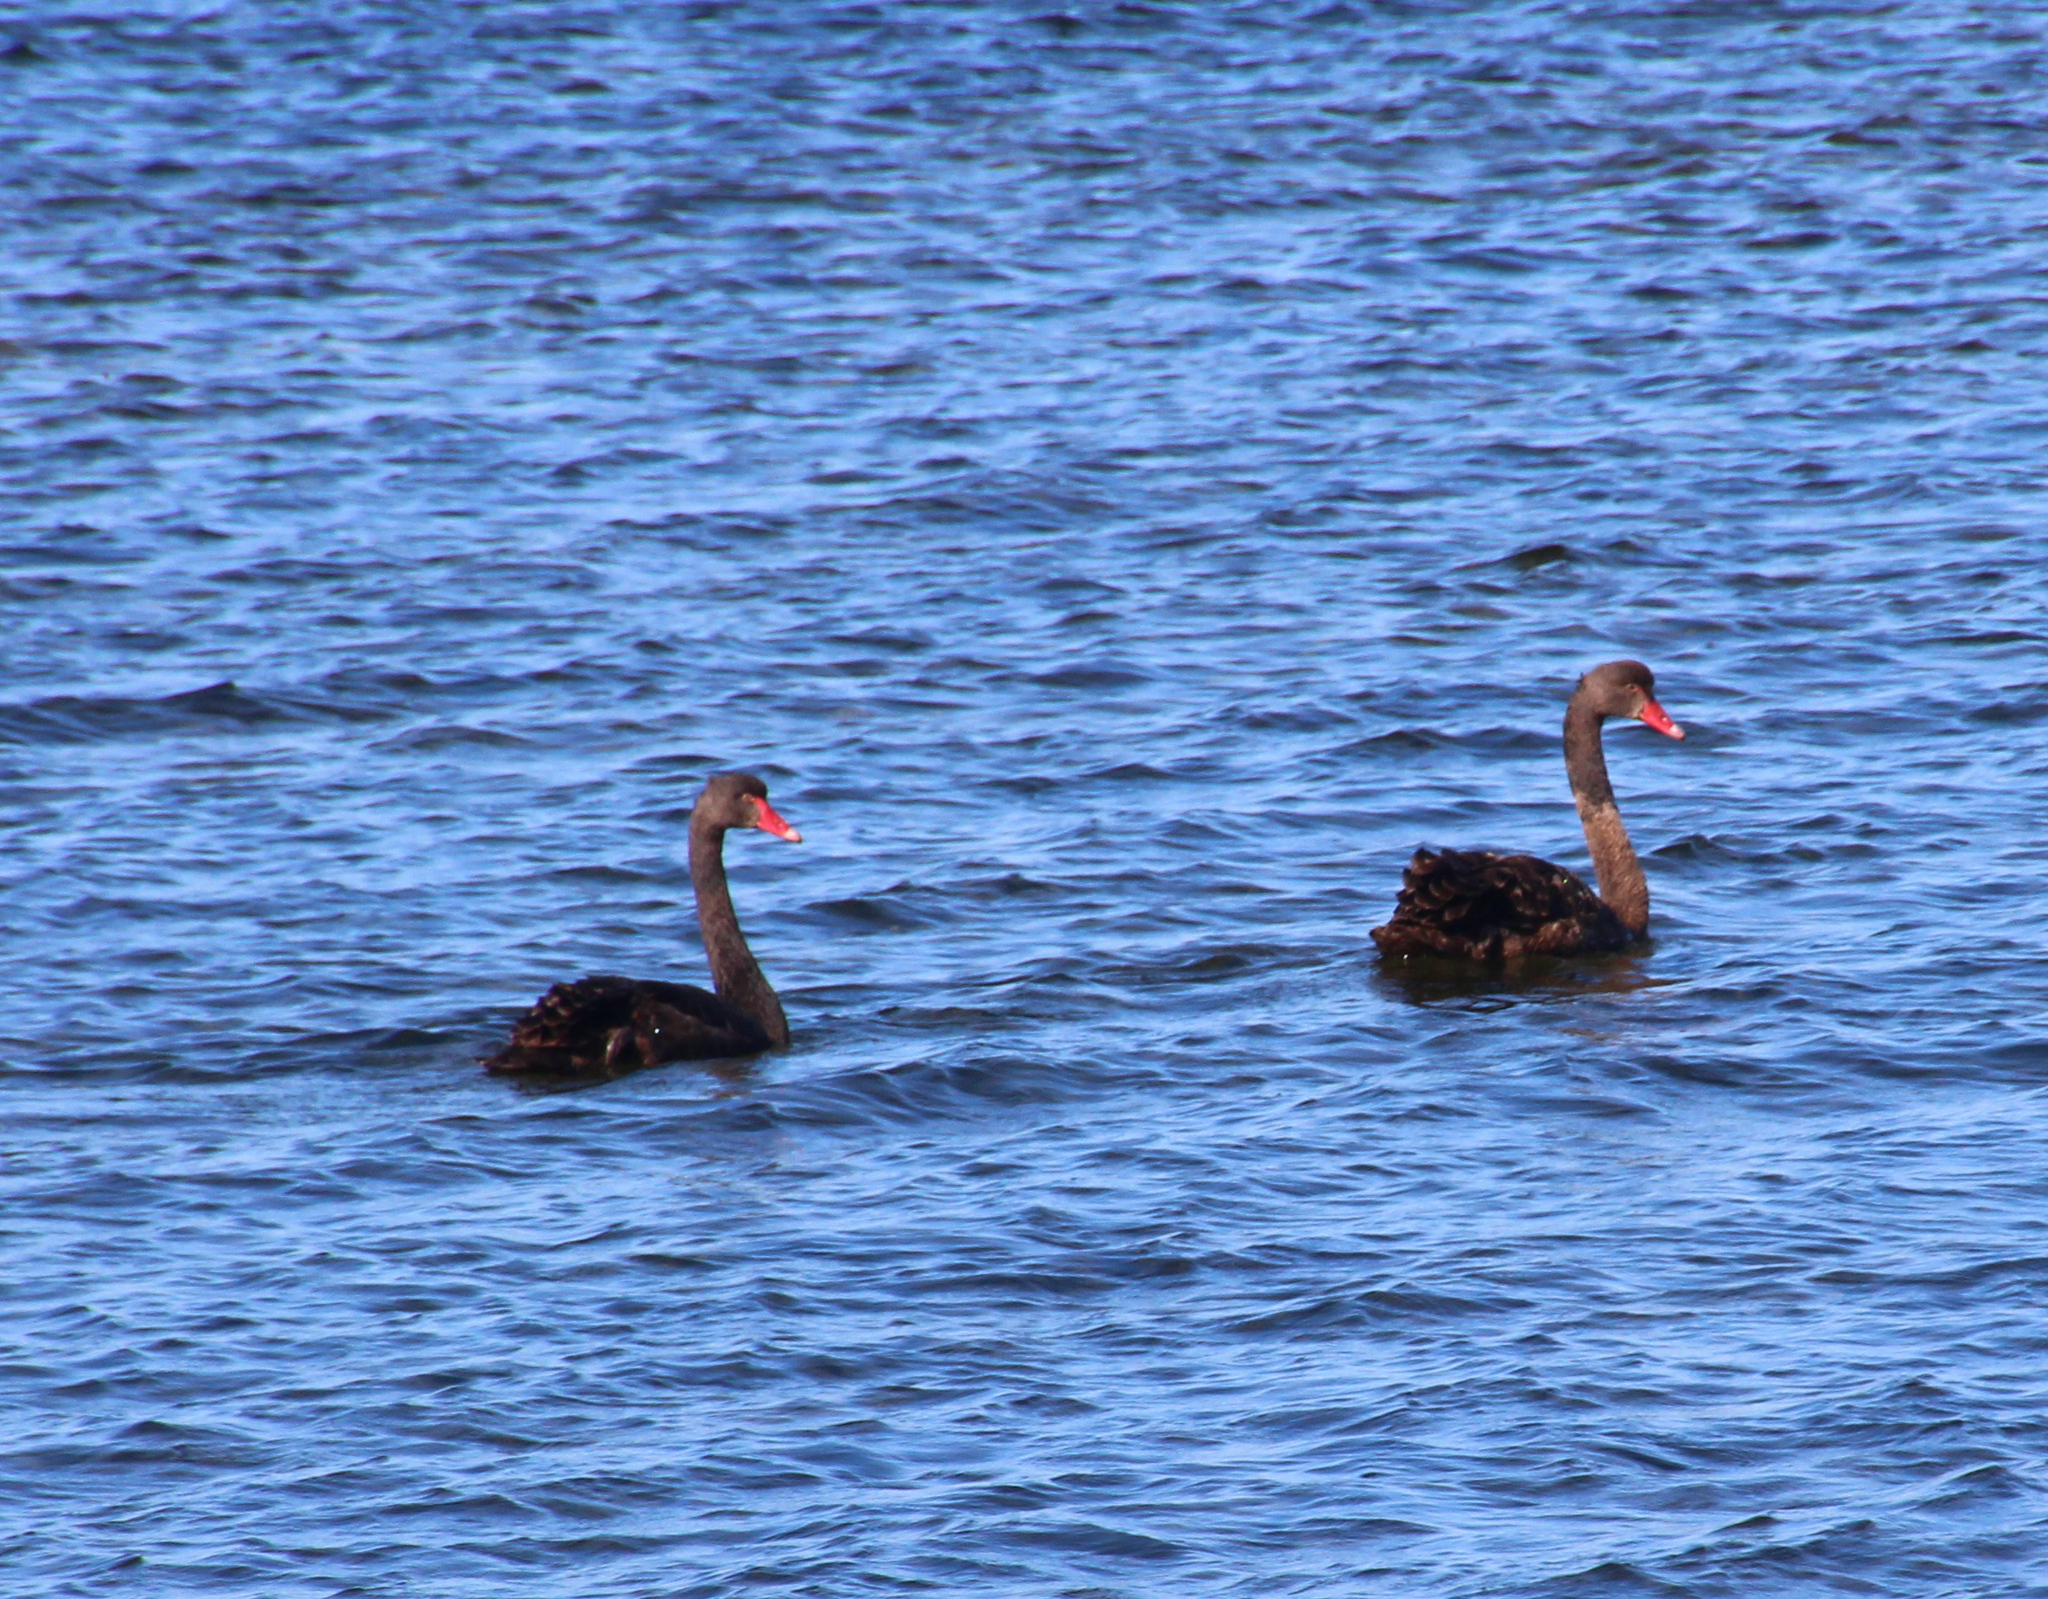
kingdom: Animalia
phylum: Chordata
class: Aves
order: Anseriformes
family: Anatidae
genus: Cygnus
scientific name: Cygnus atratus
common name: Black swan
